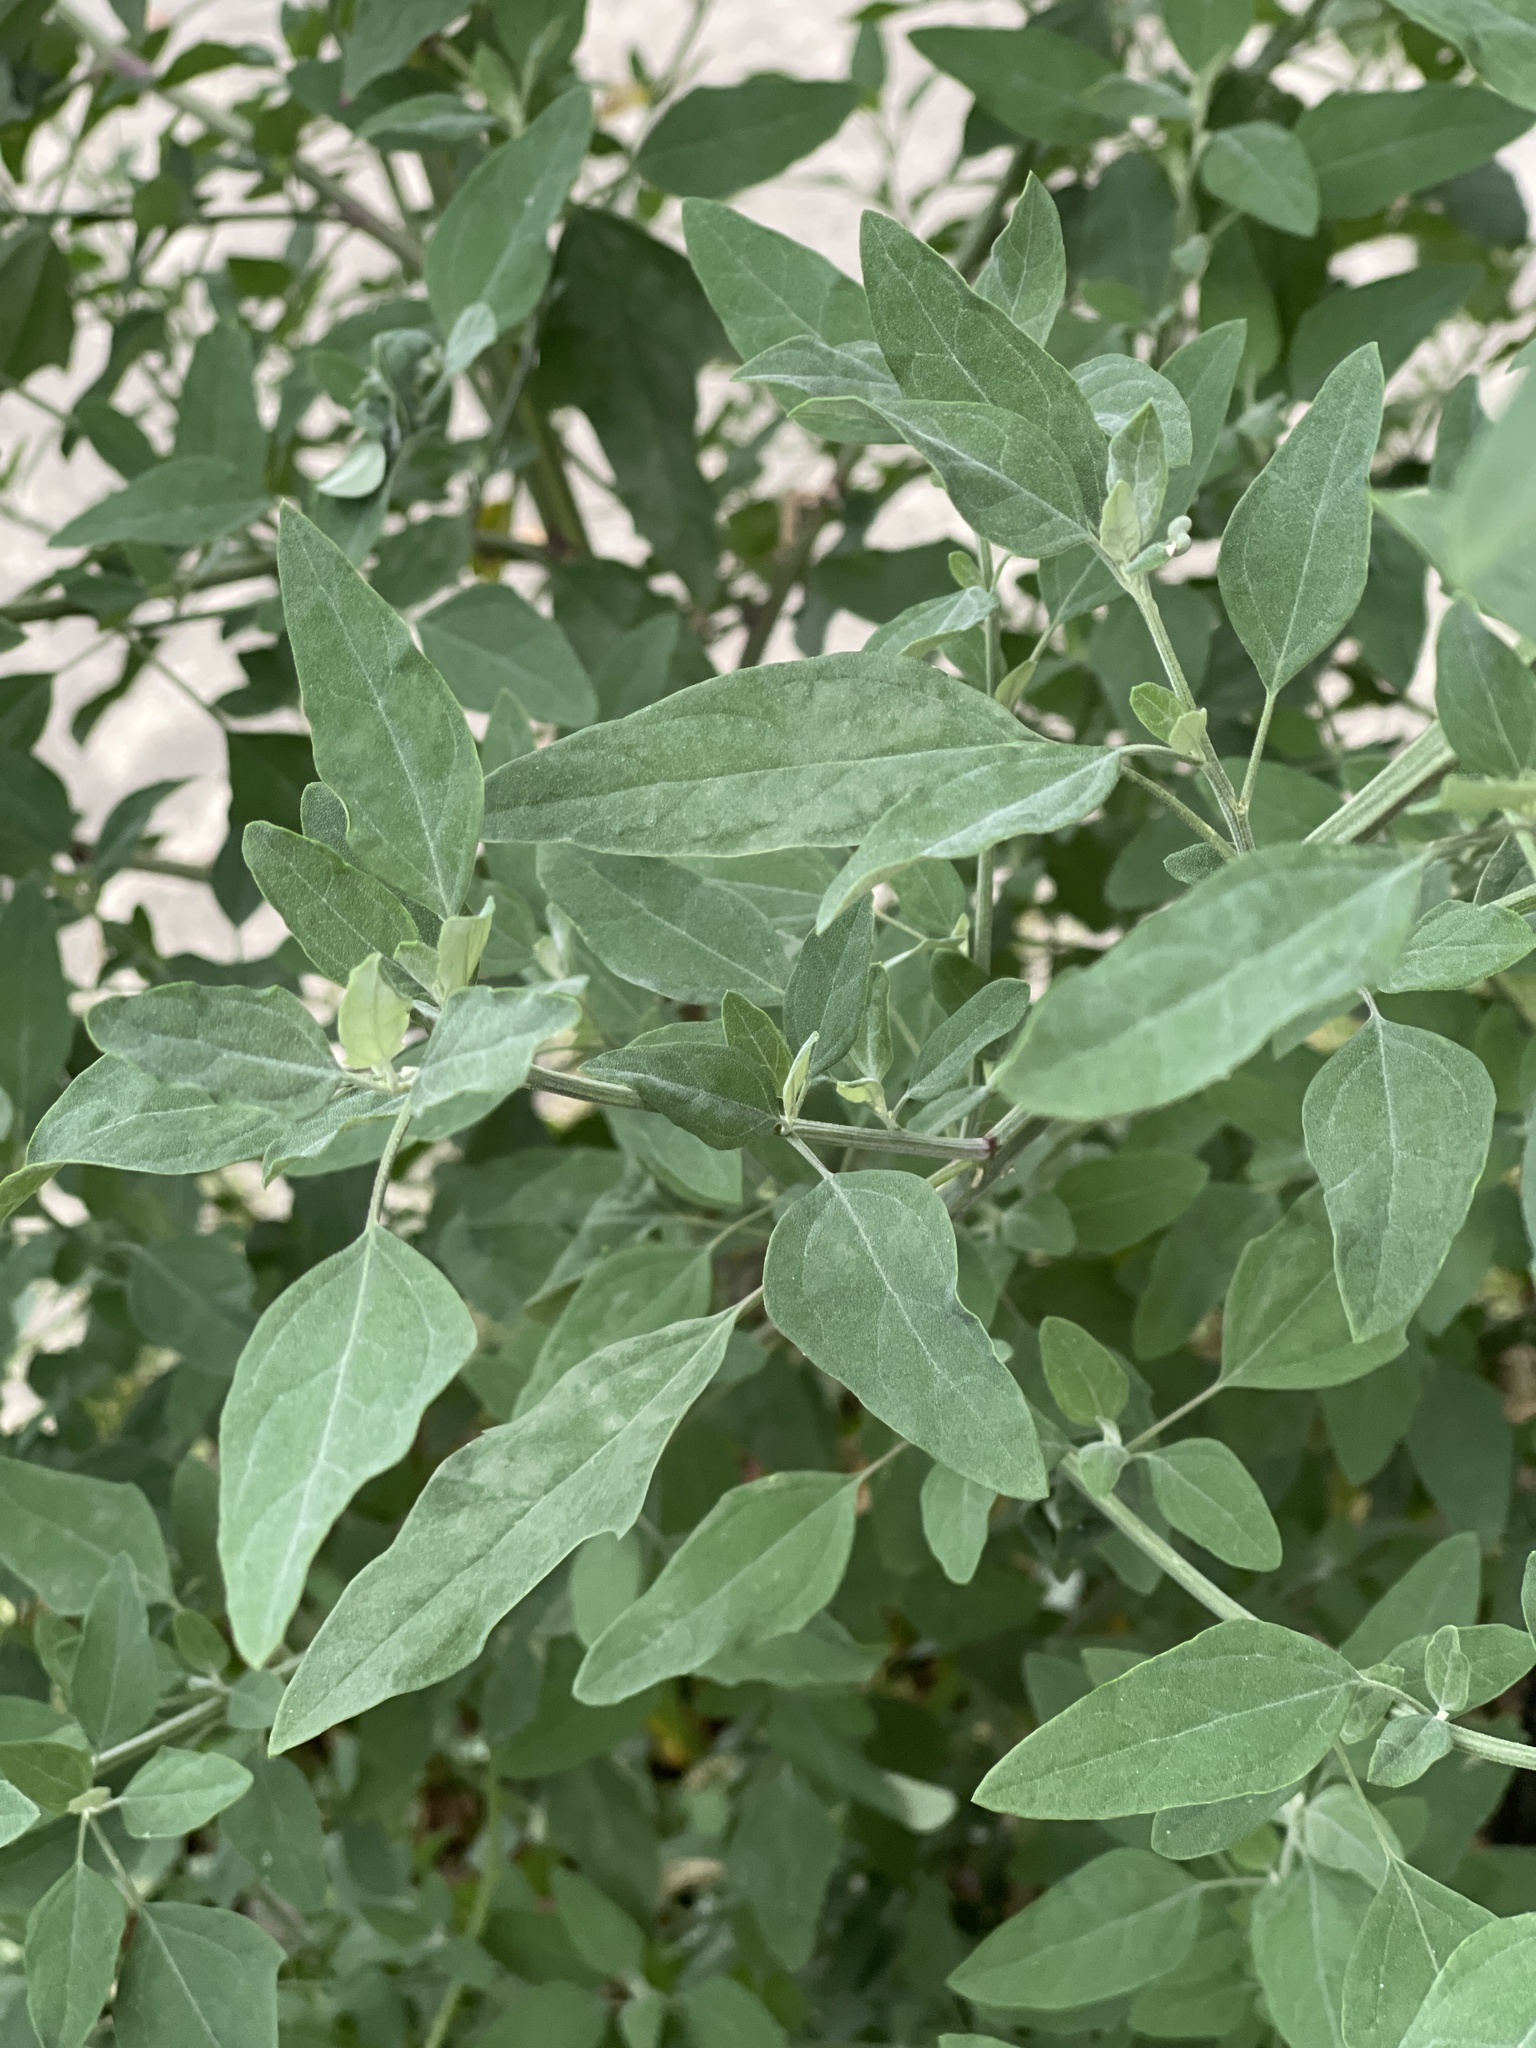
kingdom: Plantae
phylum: Tracheophyta
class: Magnoliopsida
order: Caryophyllales
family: Amaranthaceae
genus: Chenopodium
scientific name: Chenopodium album
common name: Fat-hen
